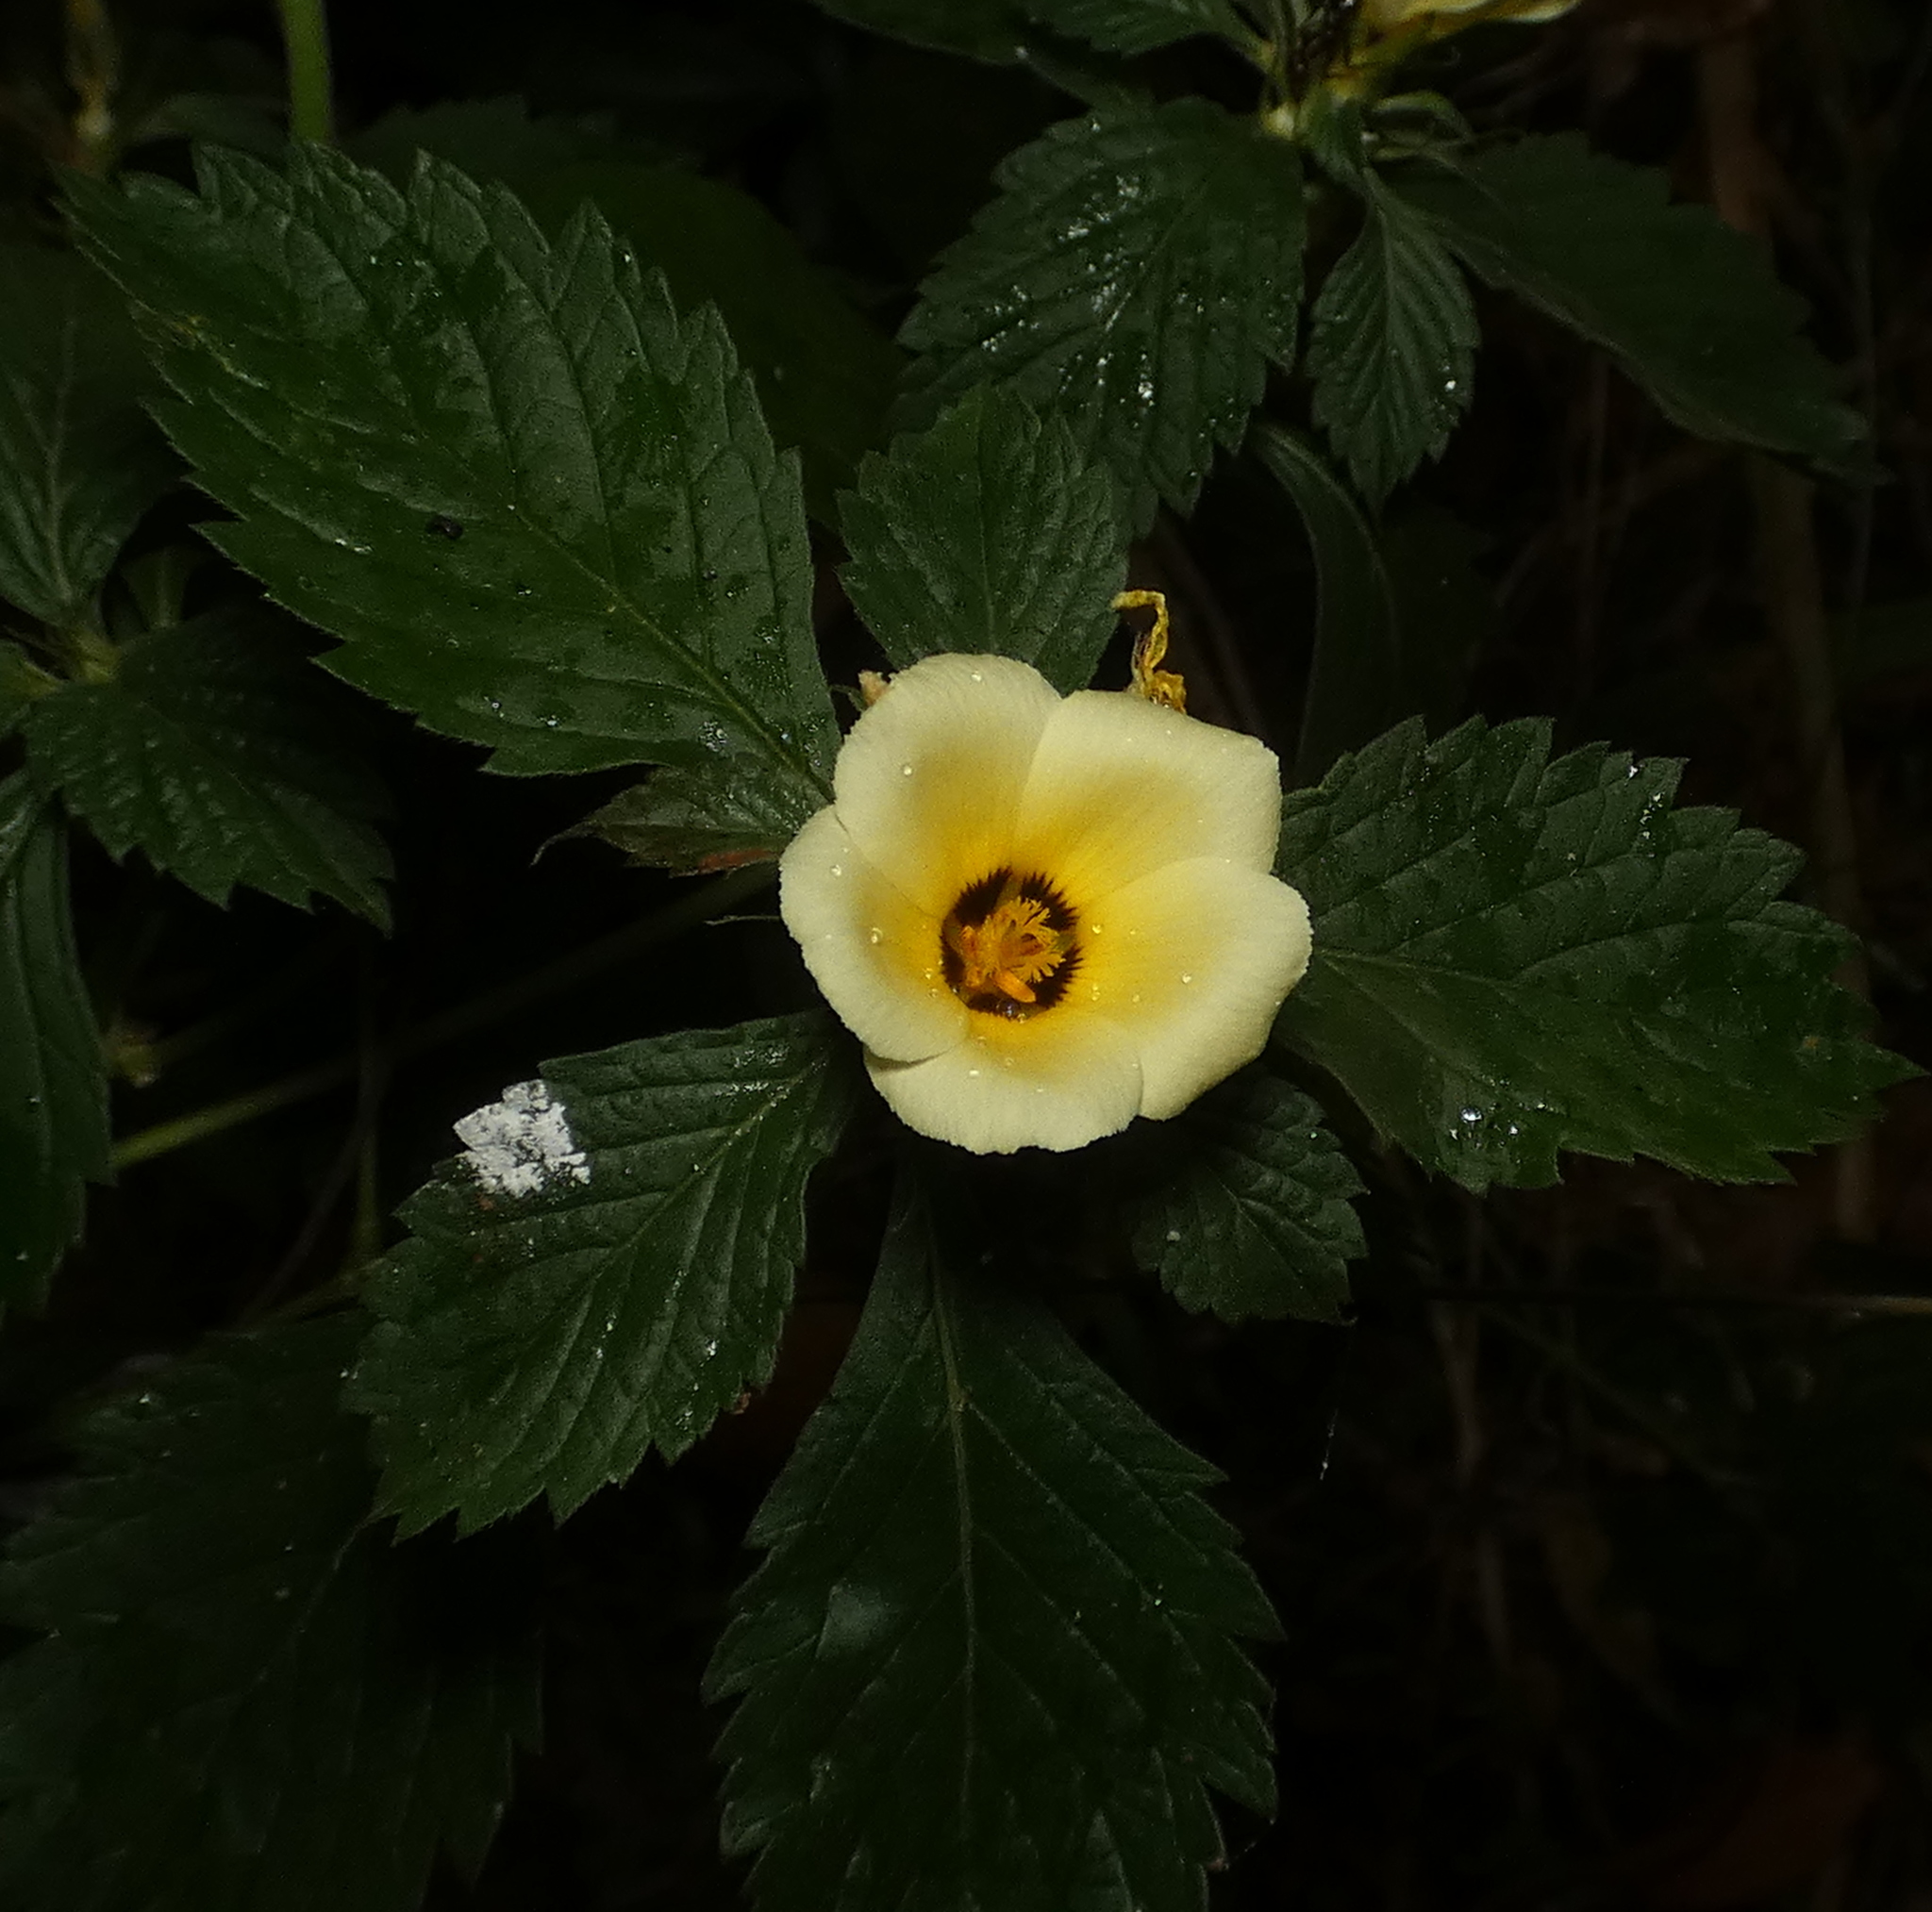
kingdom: Plantae
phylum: Tracheophyta
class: Magnoliopsida
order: Malpighiales
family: Turneraceae
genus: Turnera
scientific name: Turnera subulata
